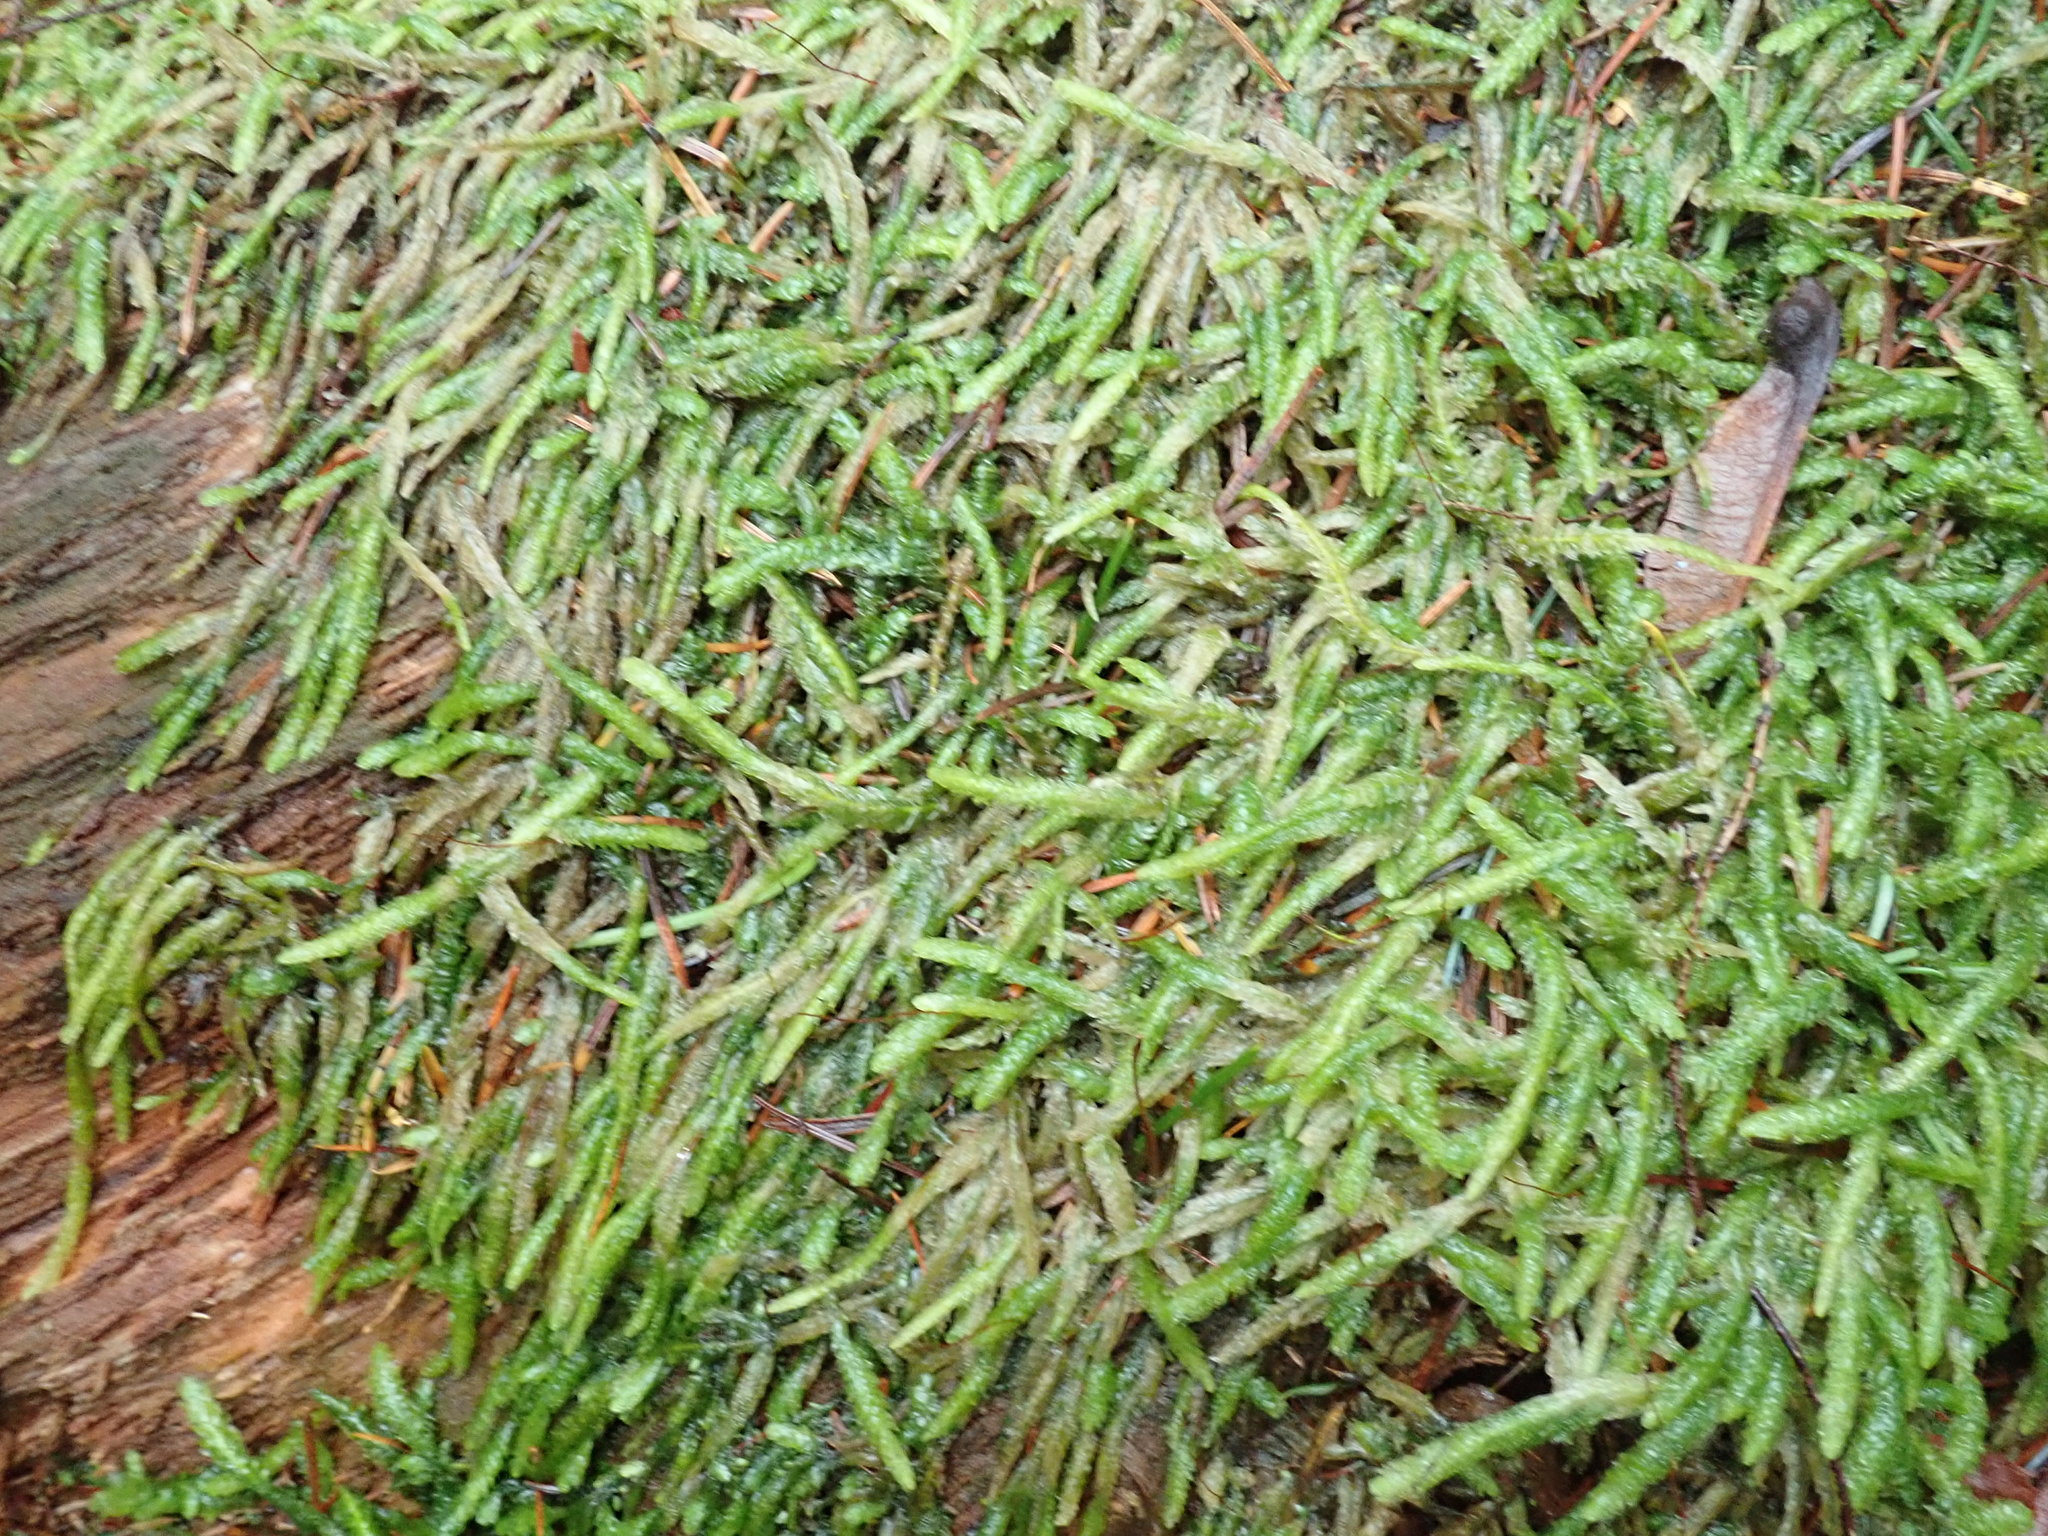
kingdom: Plantae
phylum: Bryophyta
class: Bryopsida
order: Hypnales
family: Plagiotheciaceae
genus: Plagiothecium
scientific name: Plagiothecium undulatum
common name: Waved silk-moss
